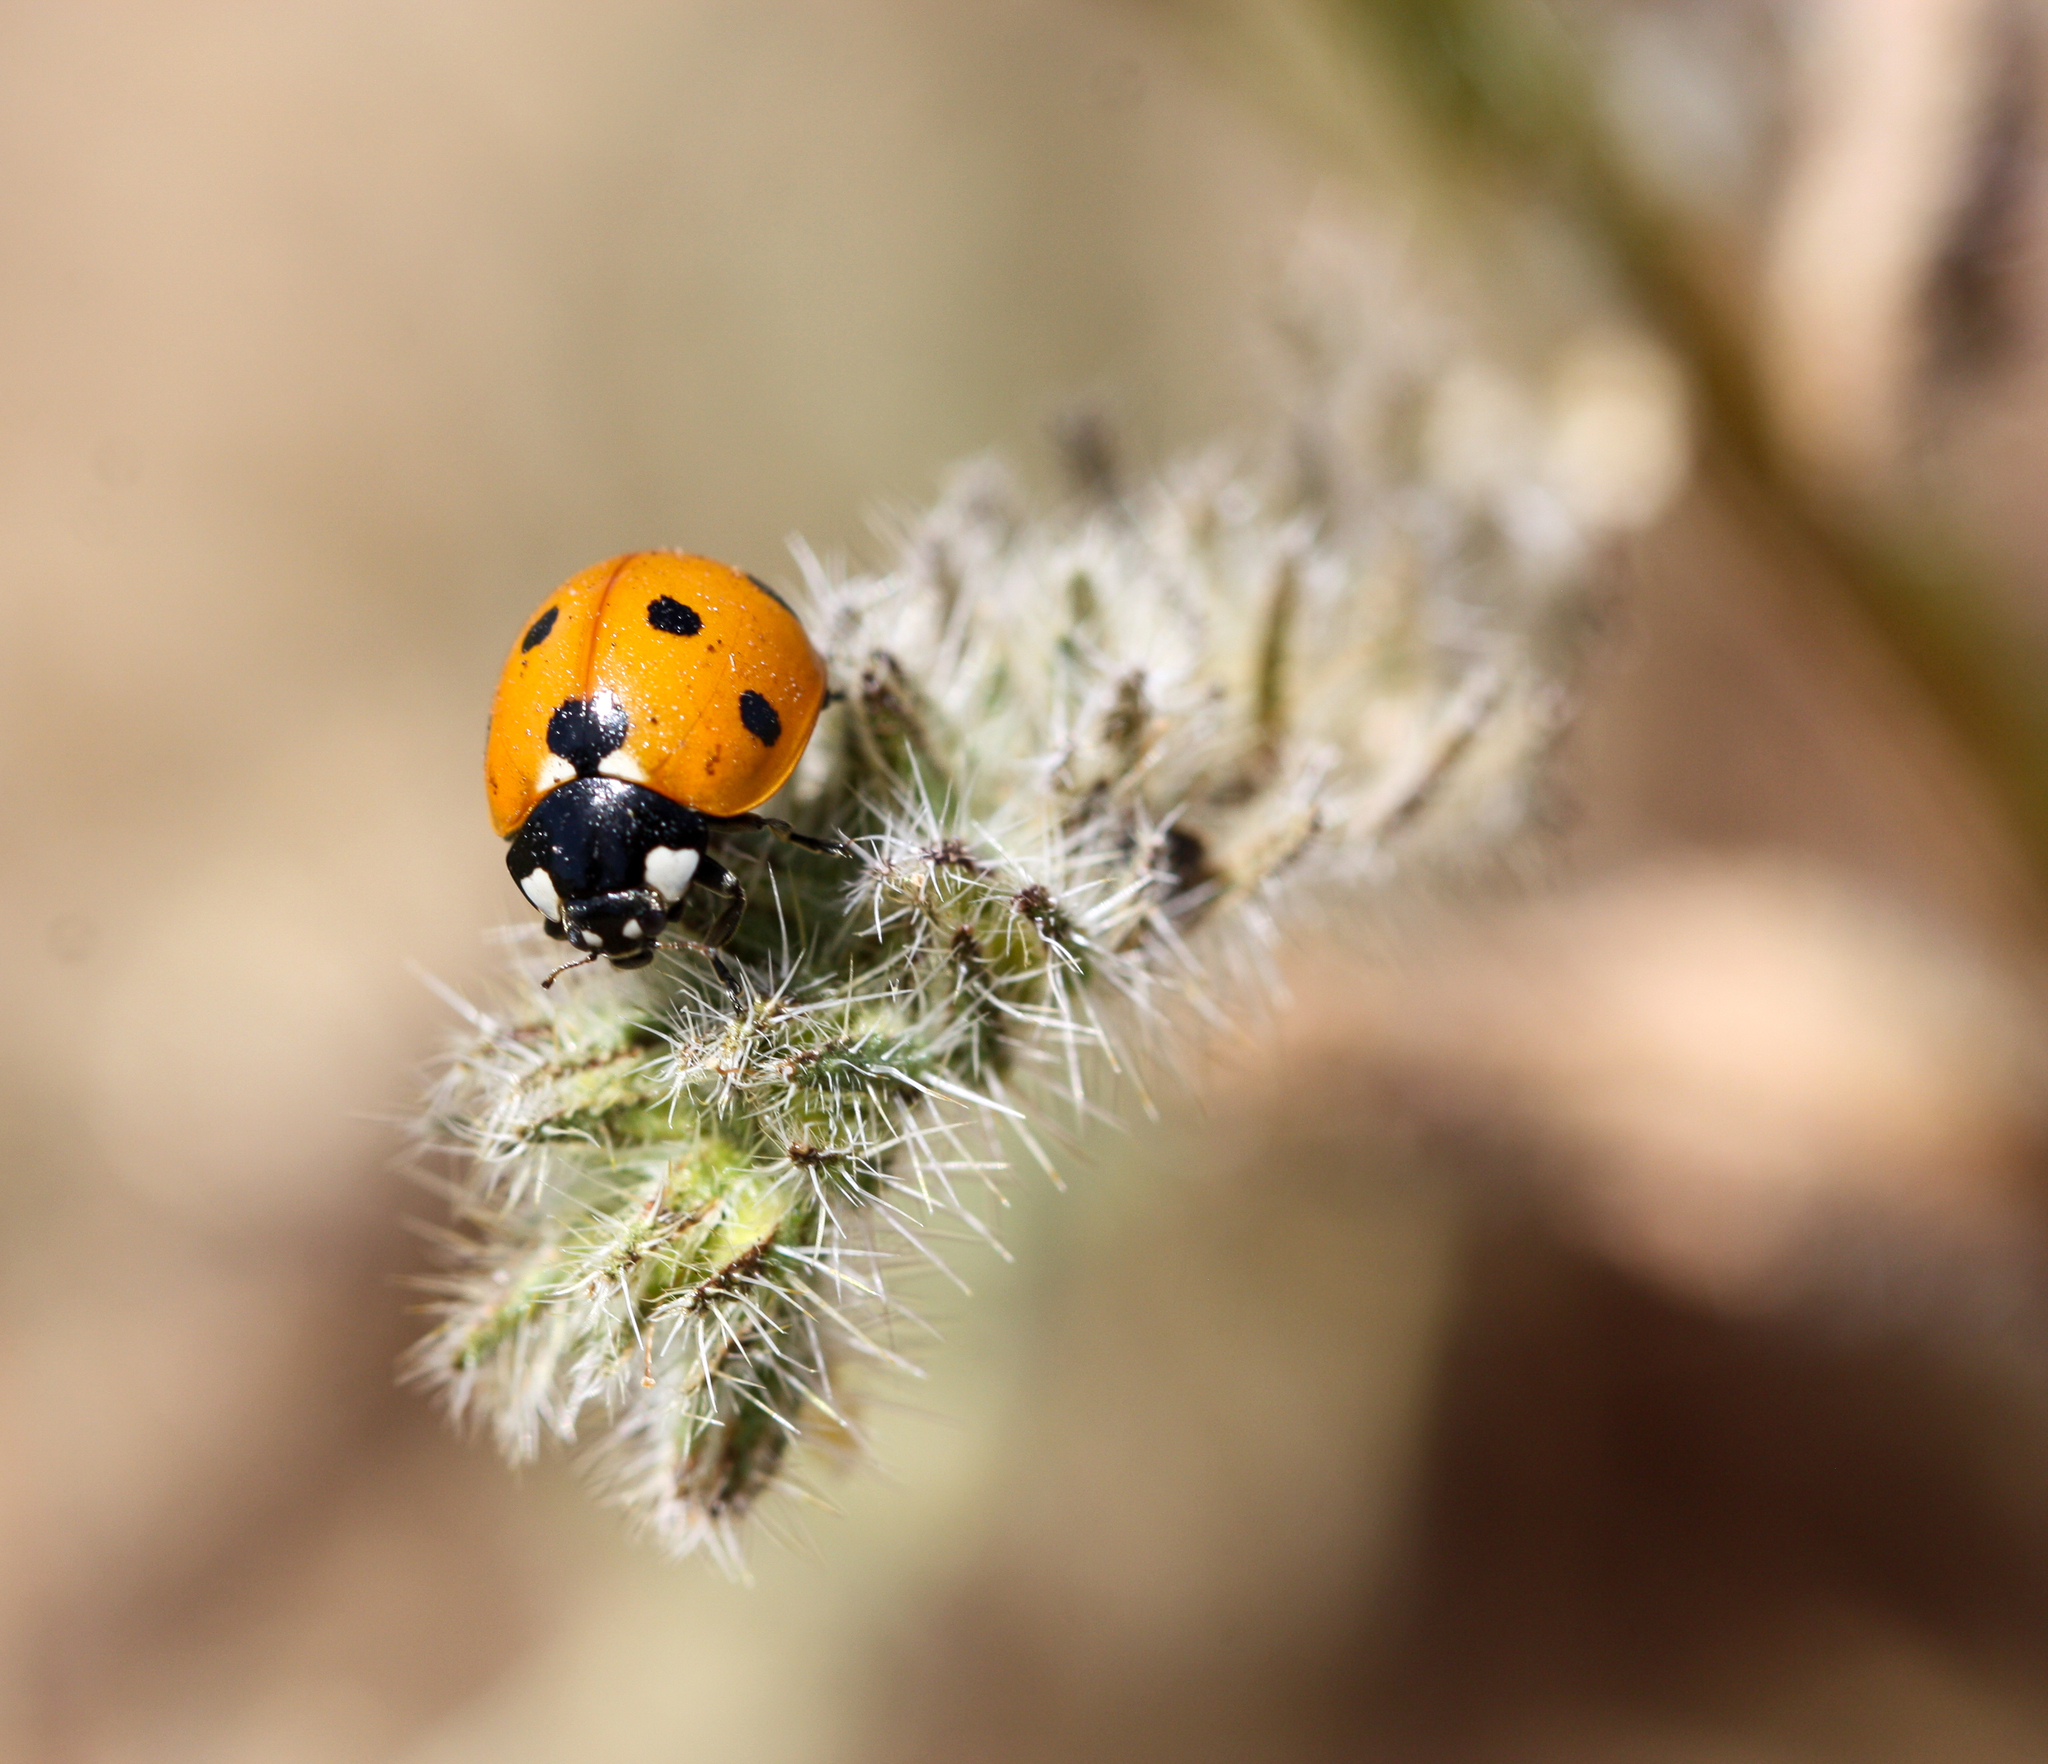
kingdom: Animalia
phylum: Arthropoda
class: Insecta
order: Coleoptera
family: Coccinellidae
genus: Coccinella
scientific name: Coccinella septempunctata
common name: Sevenspotted lady beetle
